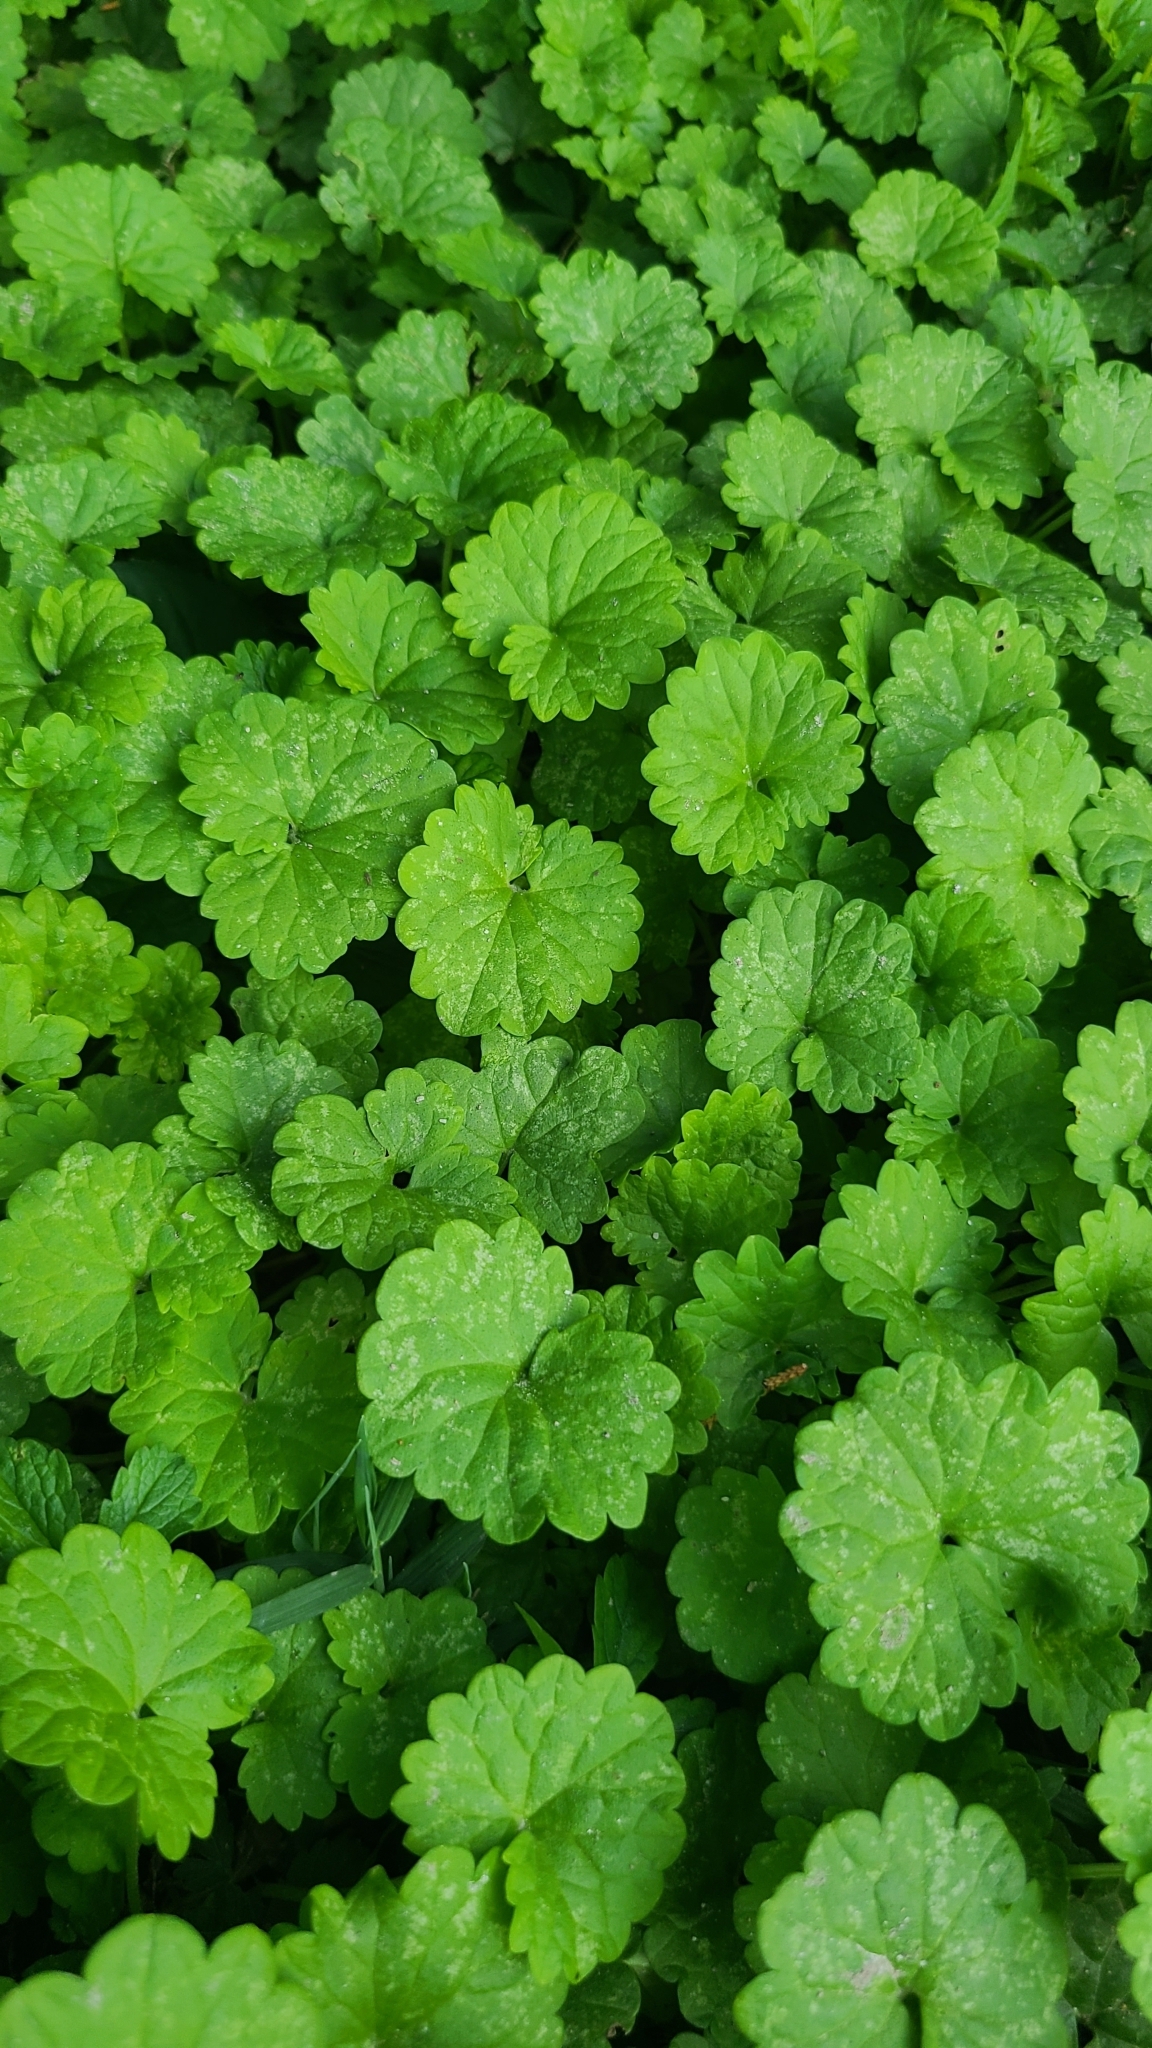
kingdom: Plantae
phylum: Tracheophyta
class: Magnoliopsida
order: Lamiales
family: Lamiaceae
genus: Glechoma
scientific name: Glechoma hederacea
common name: Ground ivy
